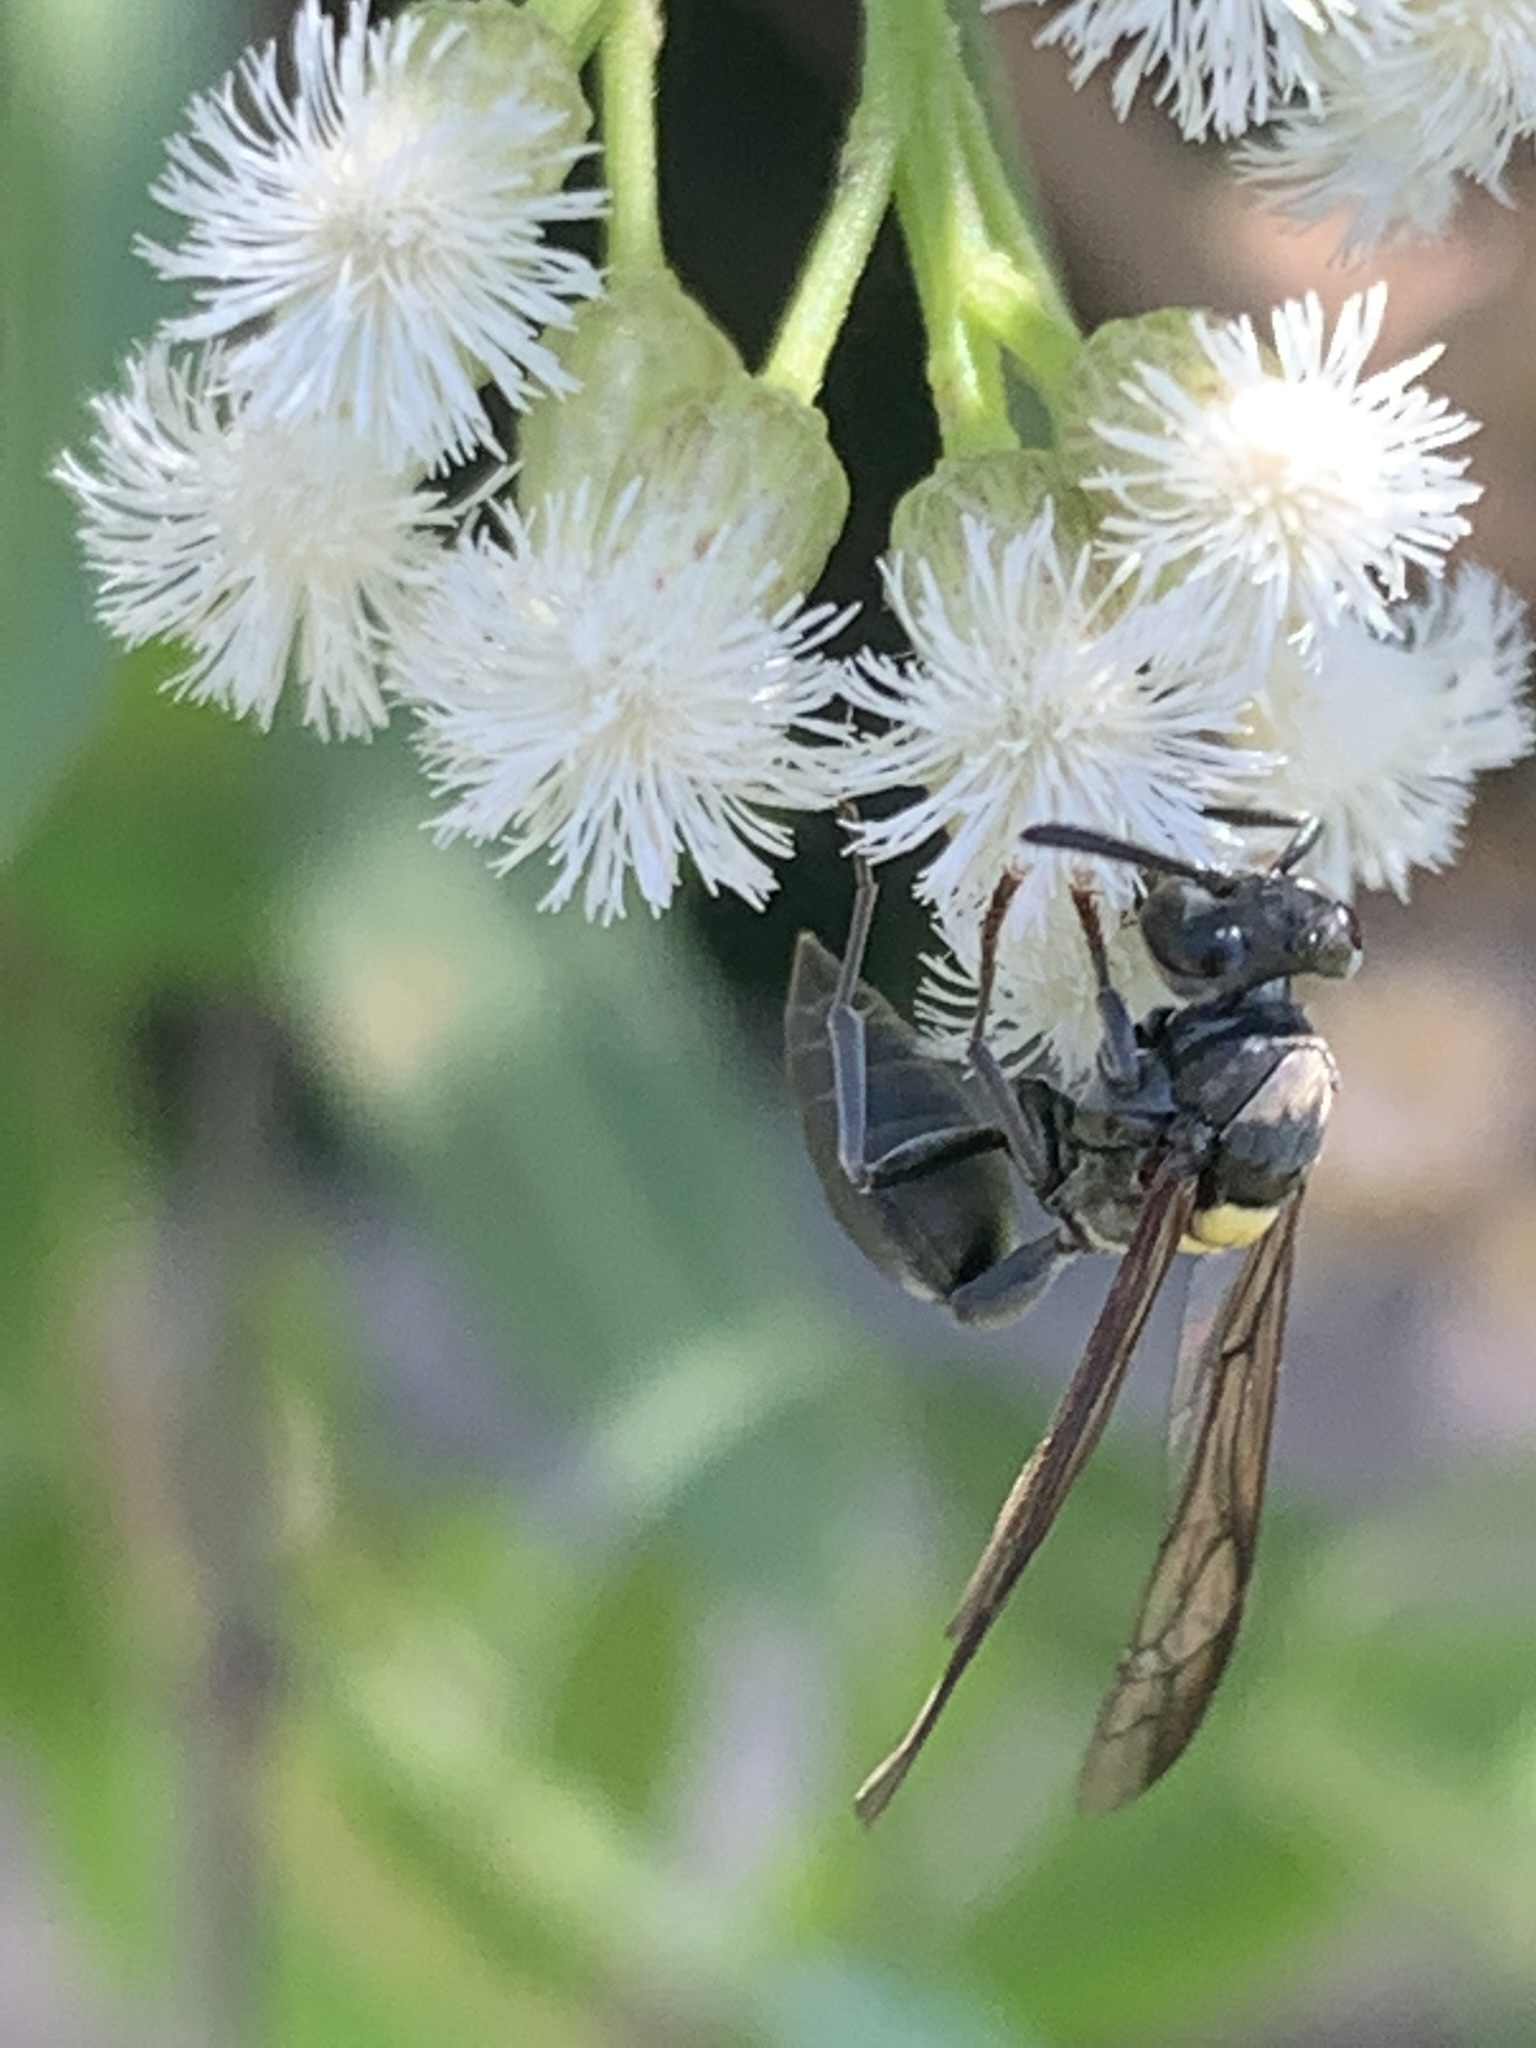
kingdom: Animalia
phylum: Arthropoda
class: Insecta
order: Hymenoptera
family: Eumenidae
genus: Polybia
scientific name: Polybia scutellaris
